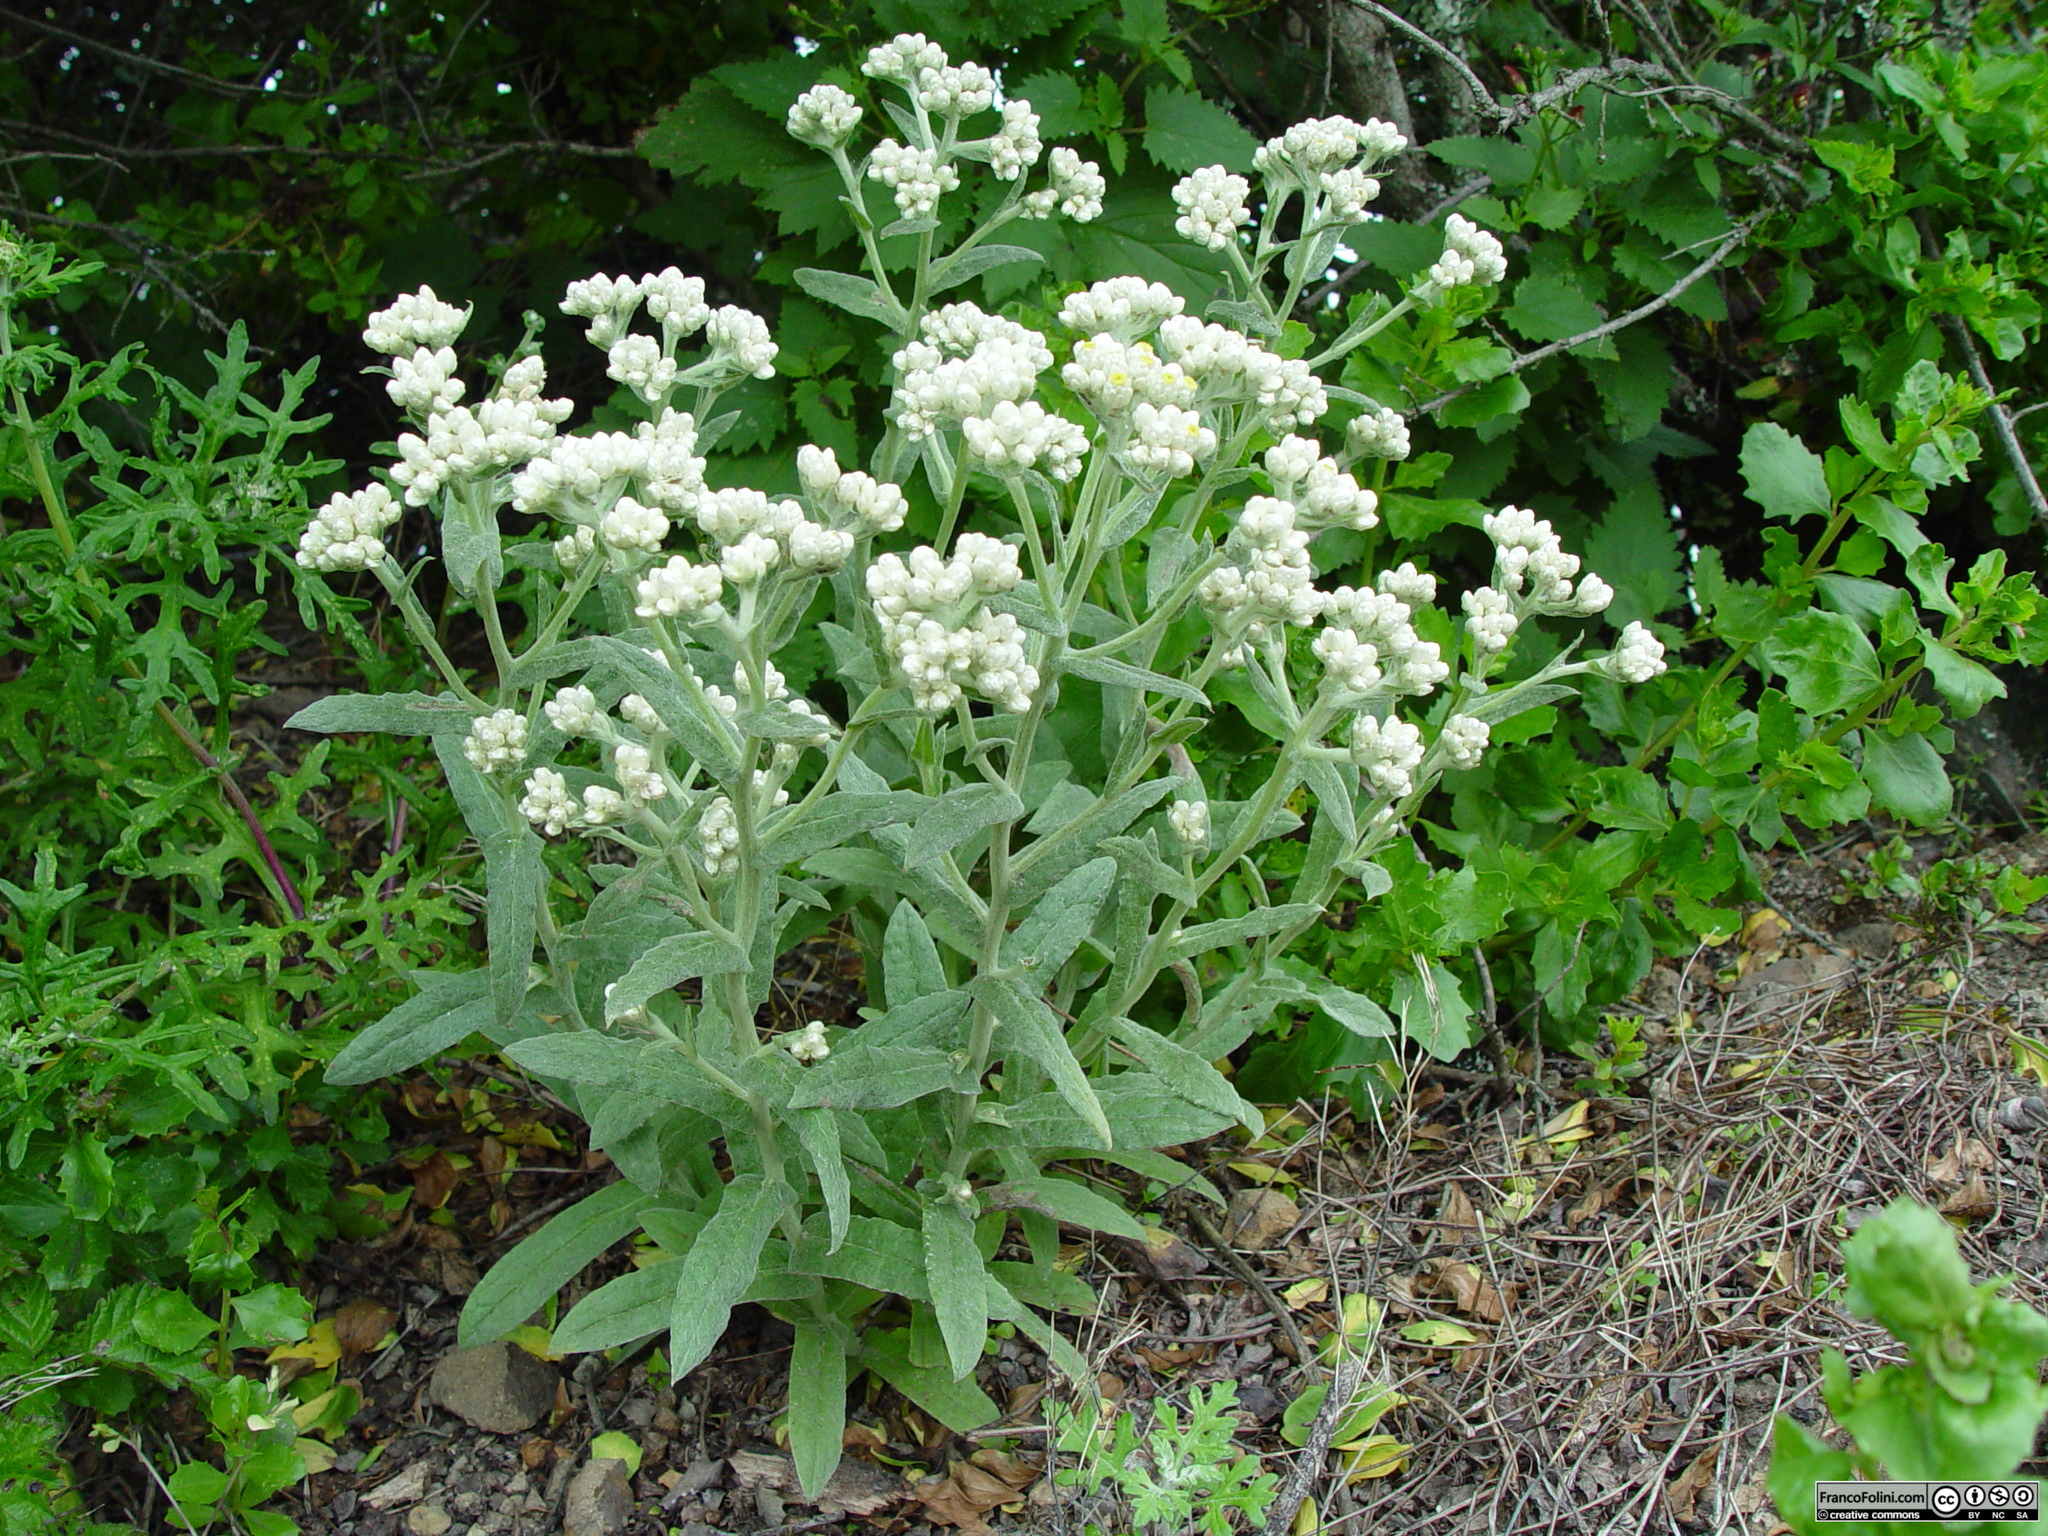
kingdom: Plantae
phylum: Tracheophyta
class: Magnoliopsida
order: Asterales
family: Asteraceae
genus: Anaphalis
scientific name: Anaphalis margaritacea
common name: Pearly everlasting
